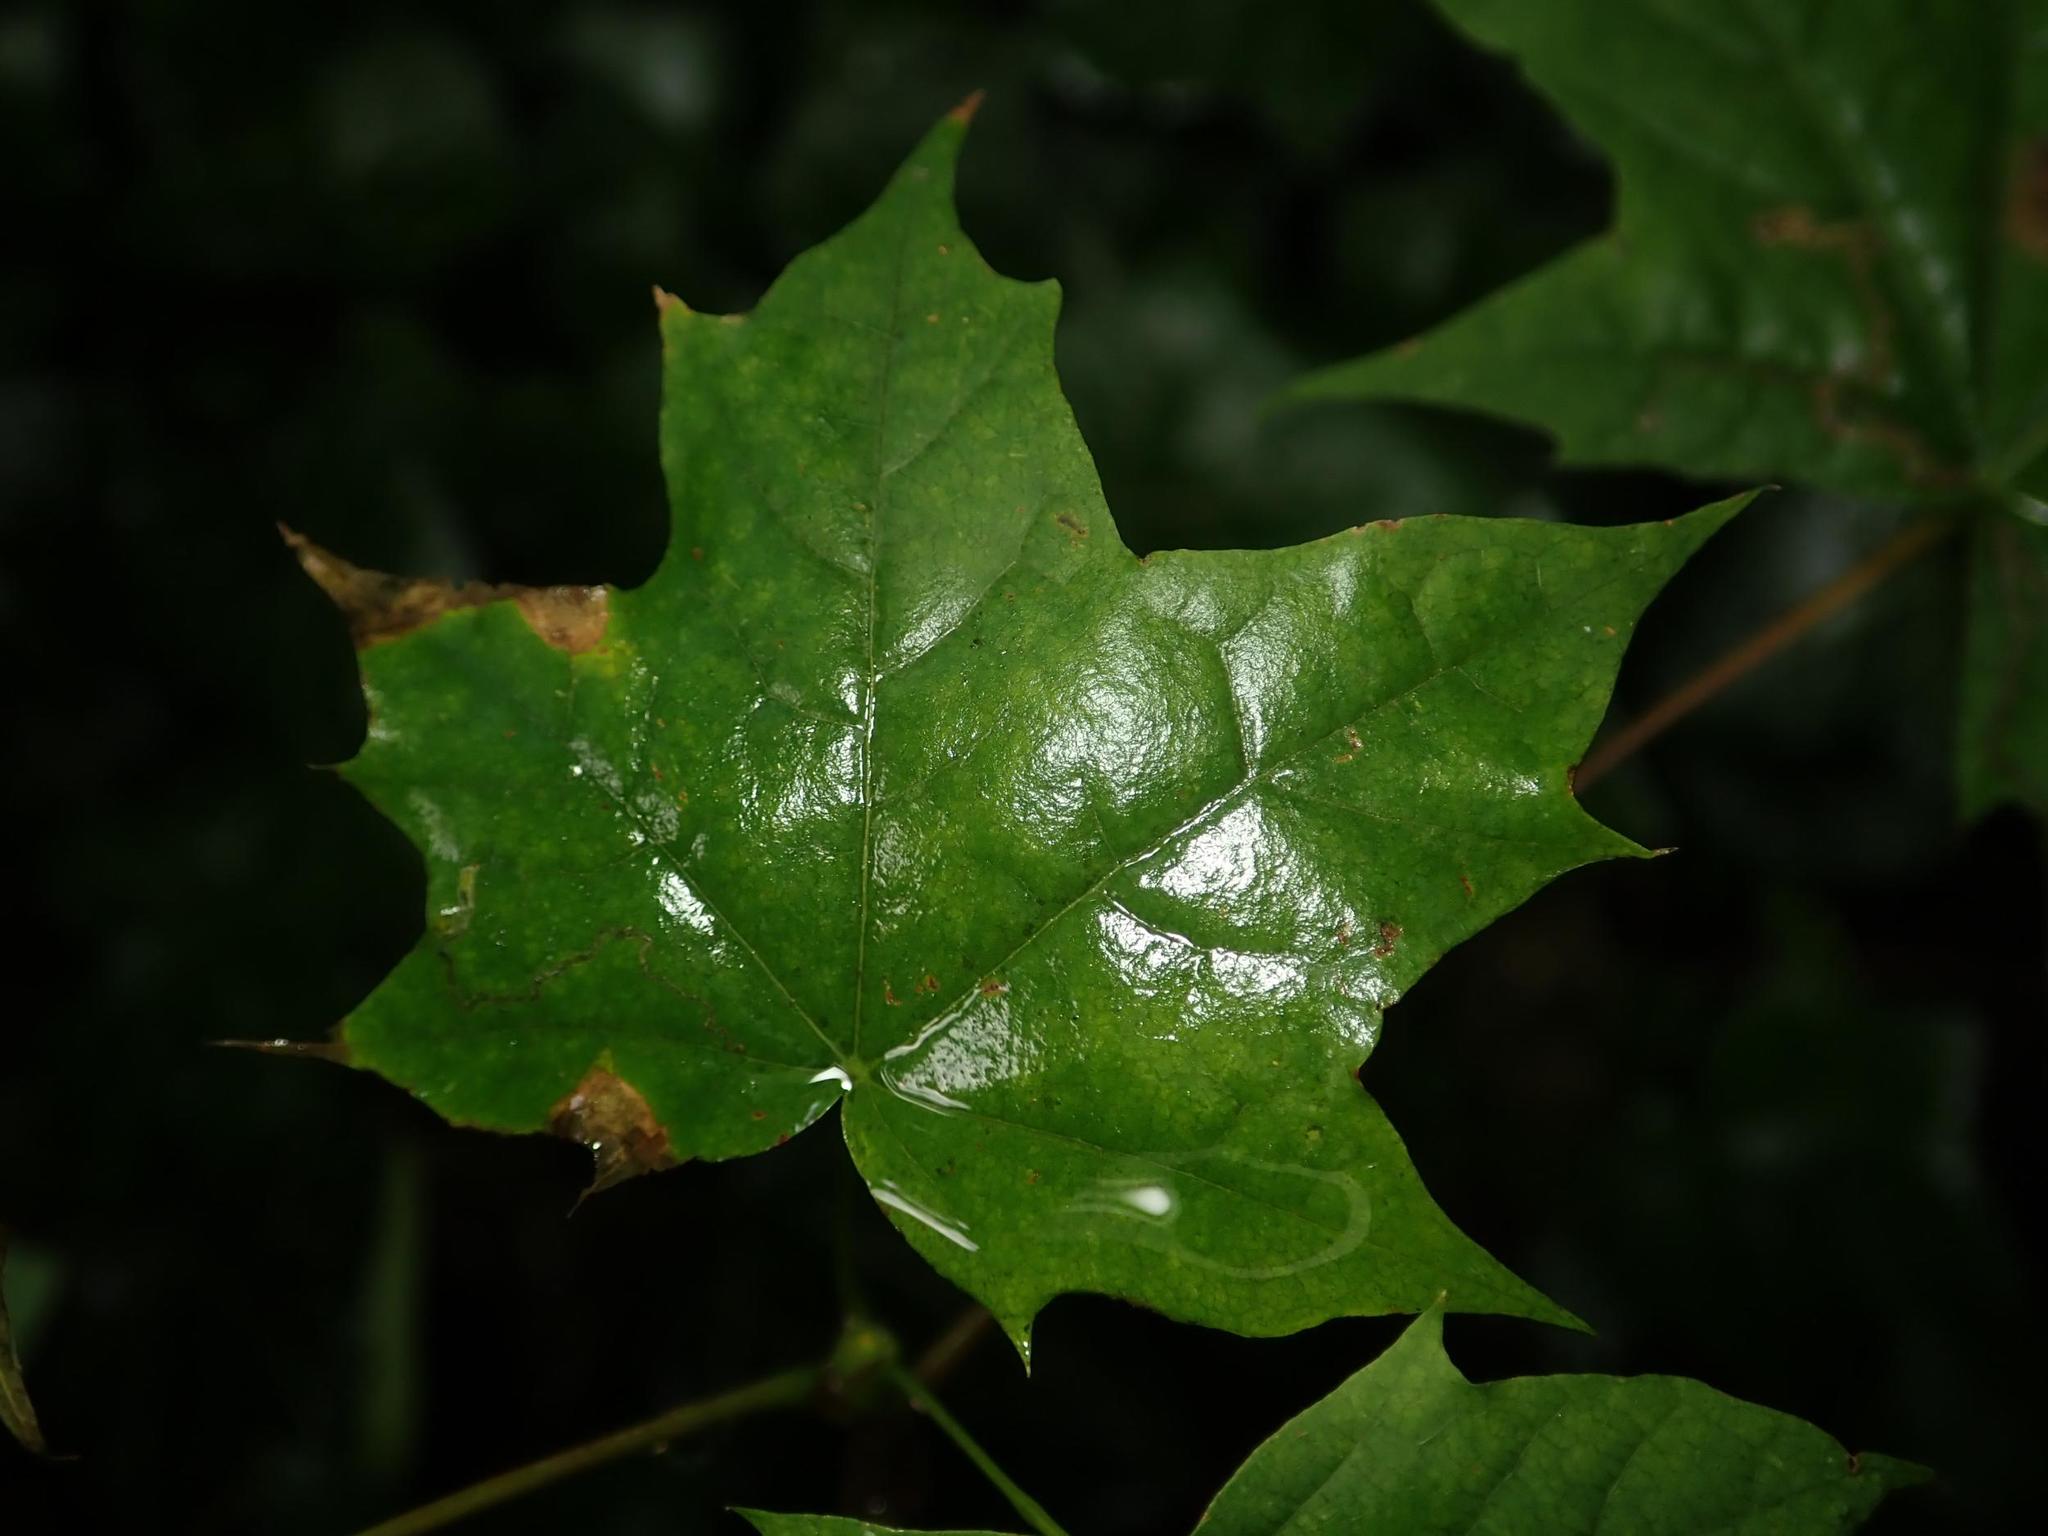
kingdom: Plantae
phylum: Tracheophyta
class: Magnoliopsida
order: Sapindales
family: Sapindaceae
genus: Acer
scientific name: Acer platanoides
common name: Norway maple
